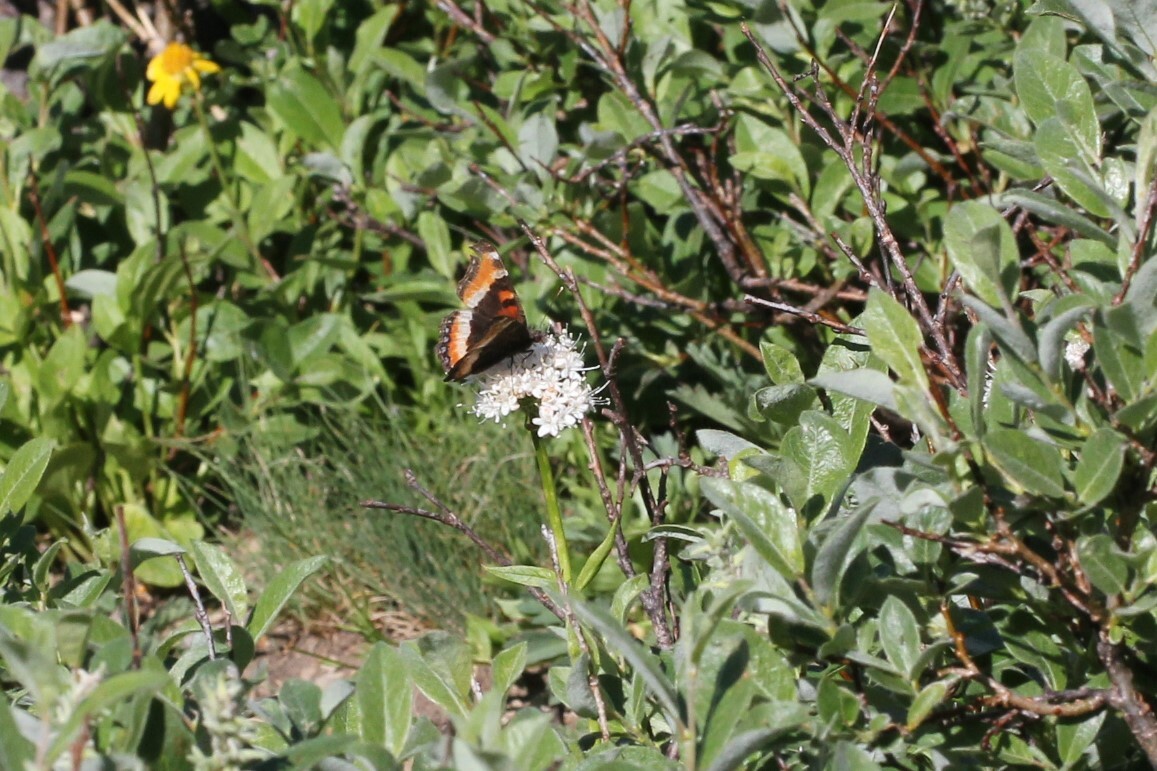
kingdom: Animalia
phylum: Arthropoda
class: Insecta
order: Lepidoptera
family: Nymphalidae
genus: Aglais
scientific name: Aglais milberti
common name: Milbert's tortoiseshell
